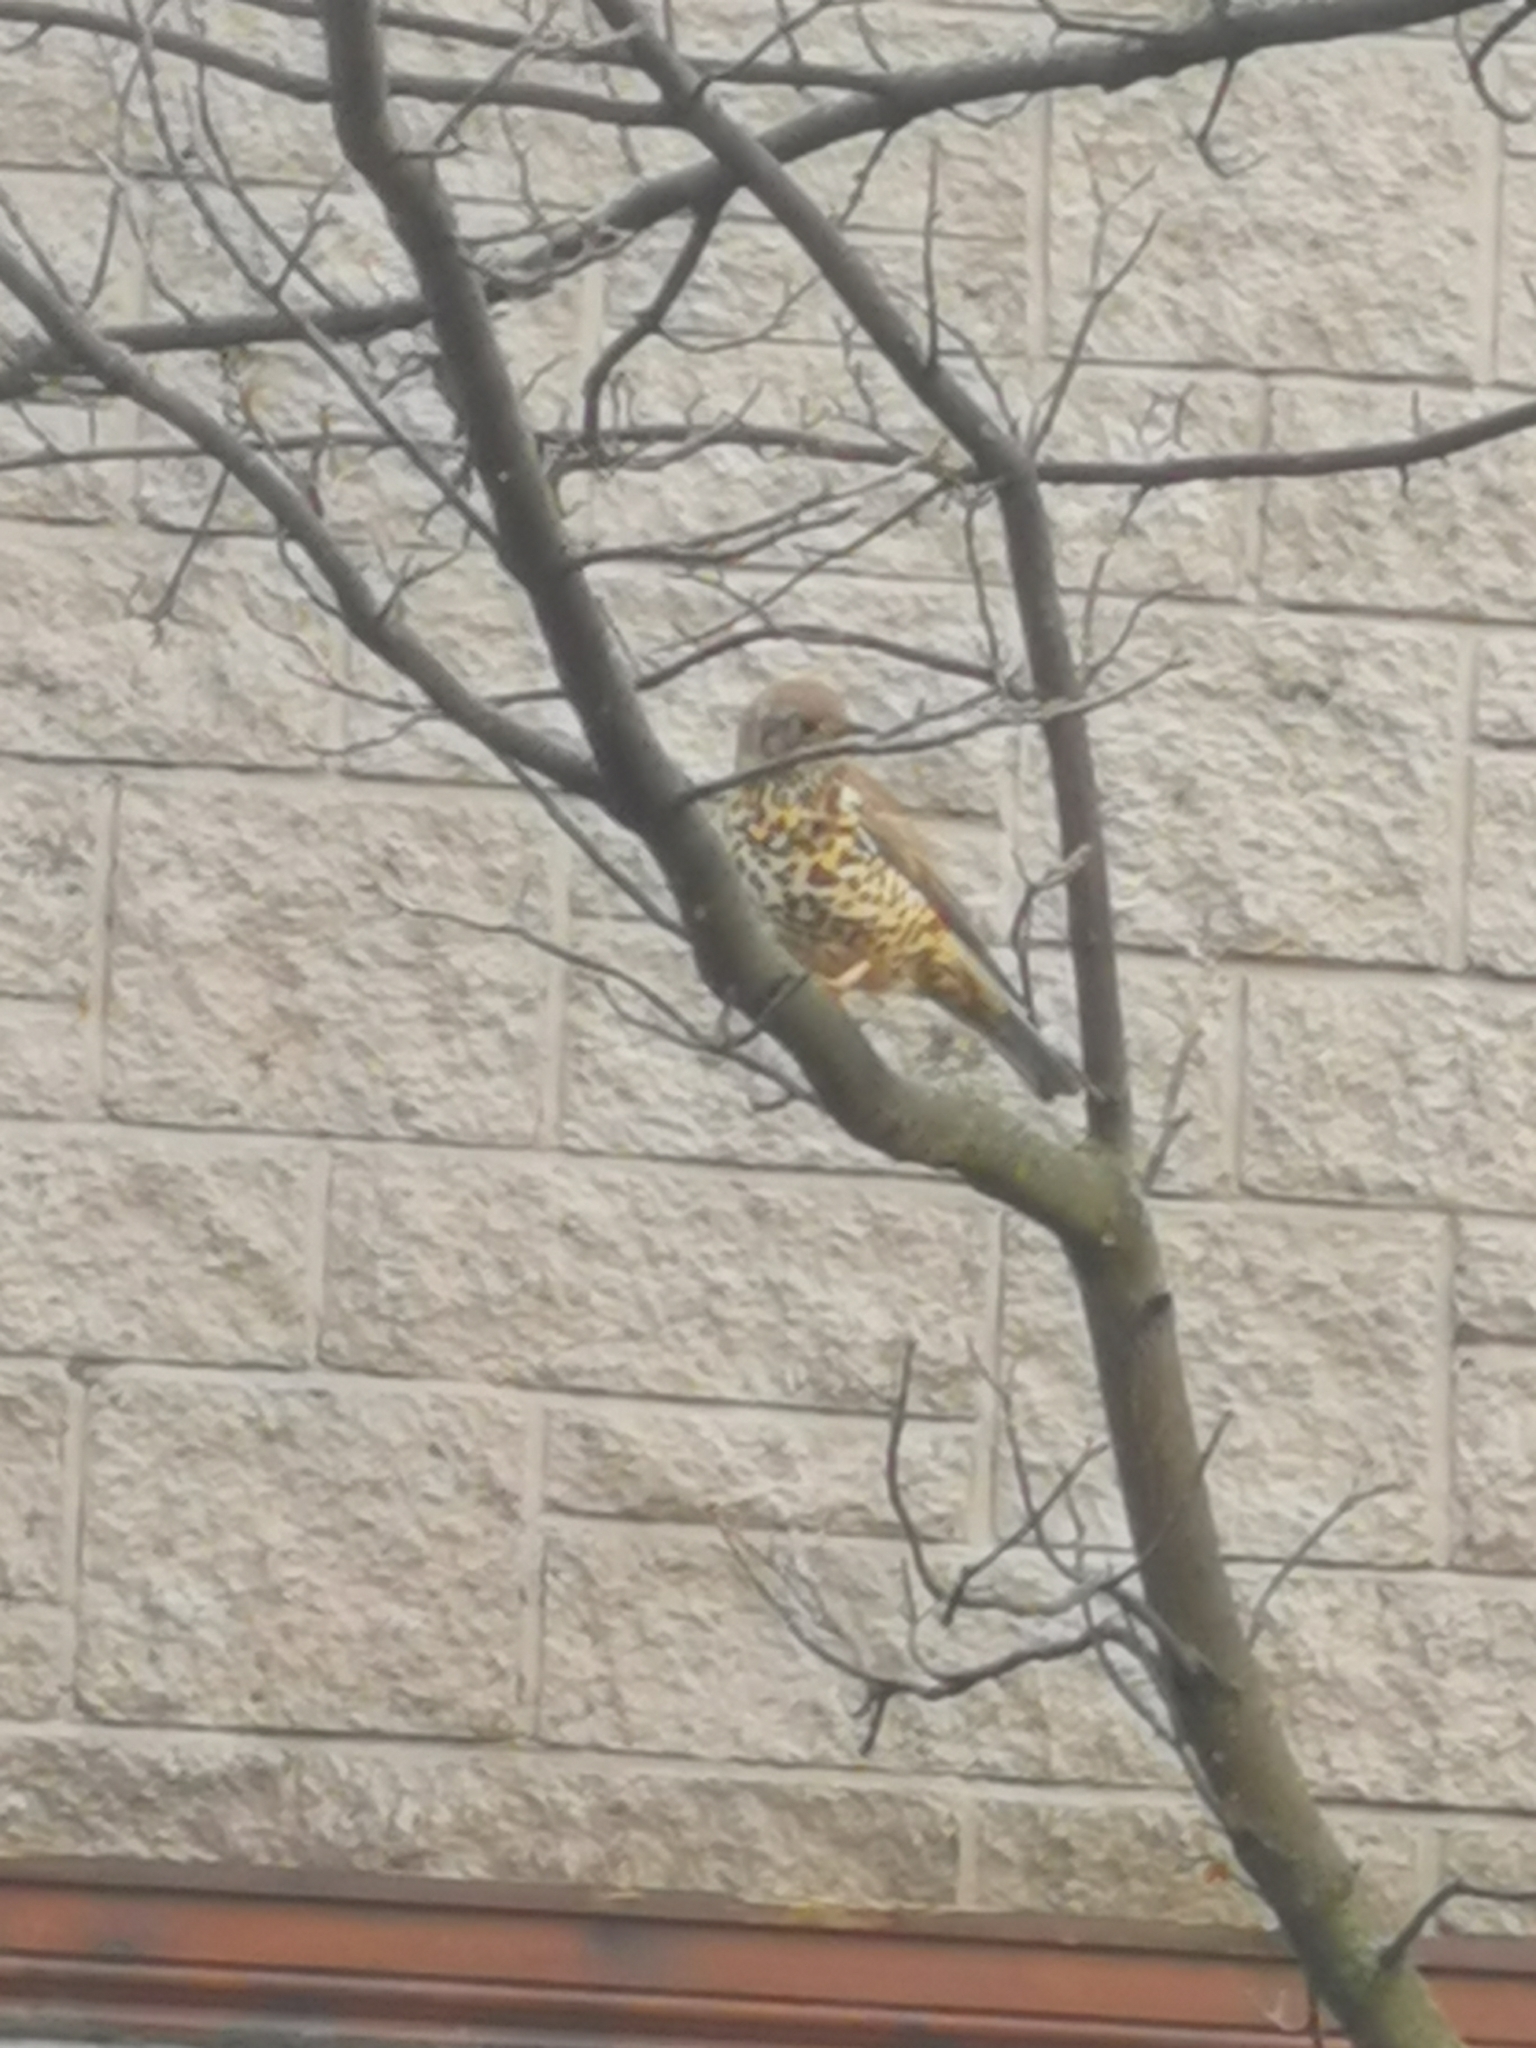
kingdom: Animalia
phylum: Chordata
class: Aves
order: Passeriformes
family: Turdidae
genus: Turdus
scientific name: Turdus viscivorus
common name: Mistle thrush
